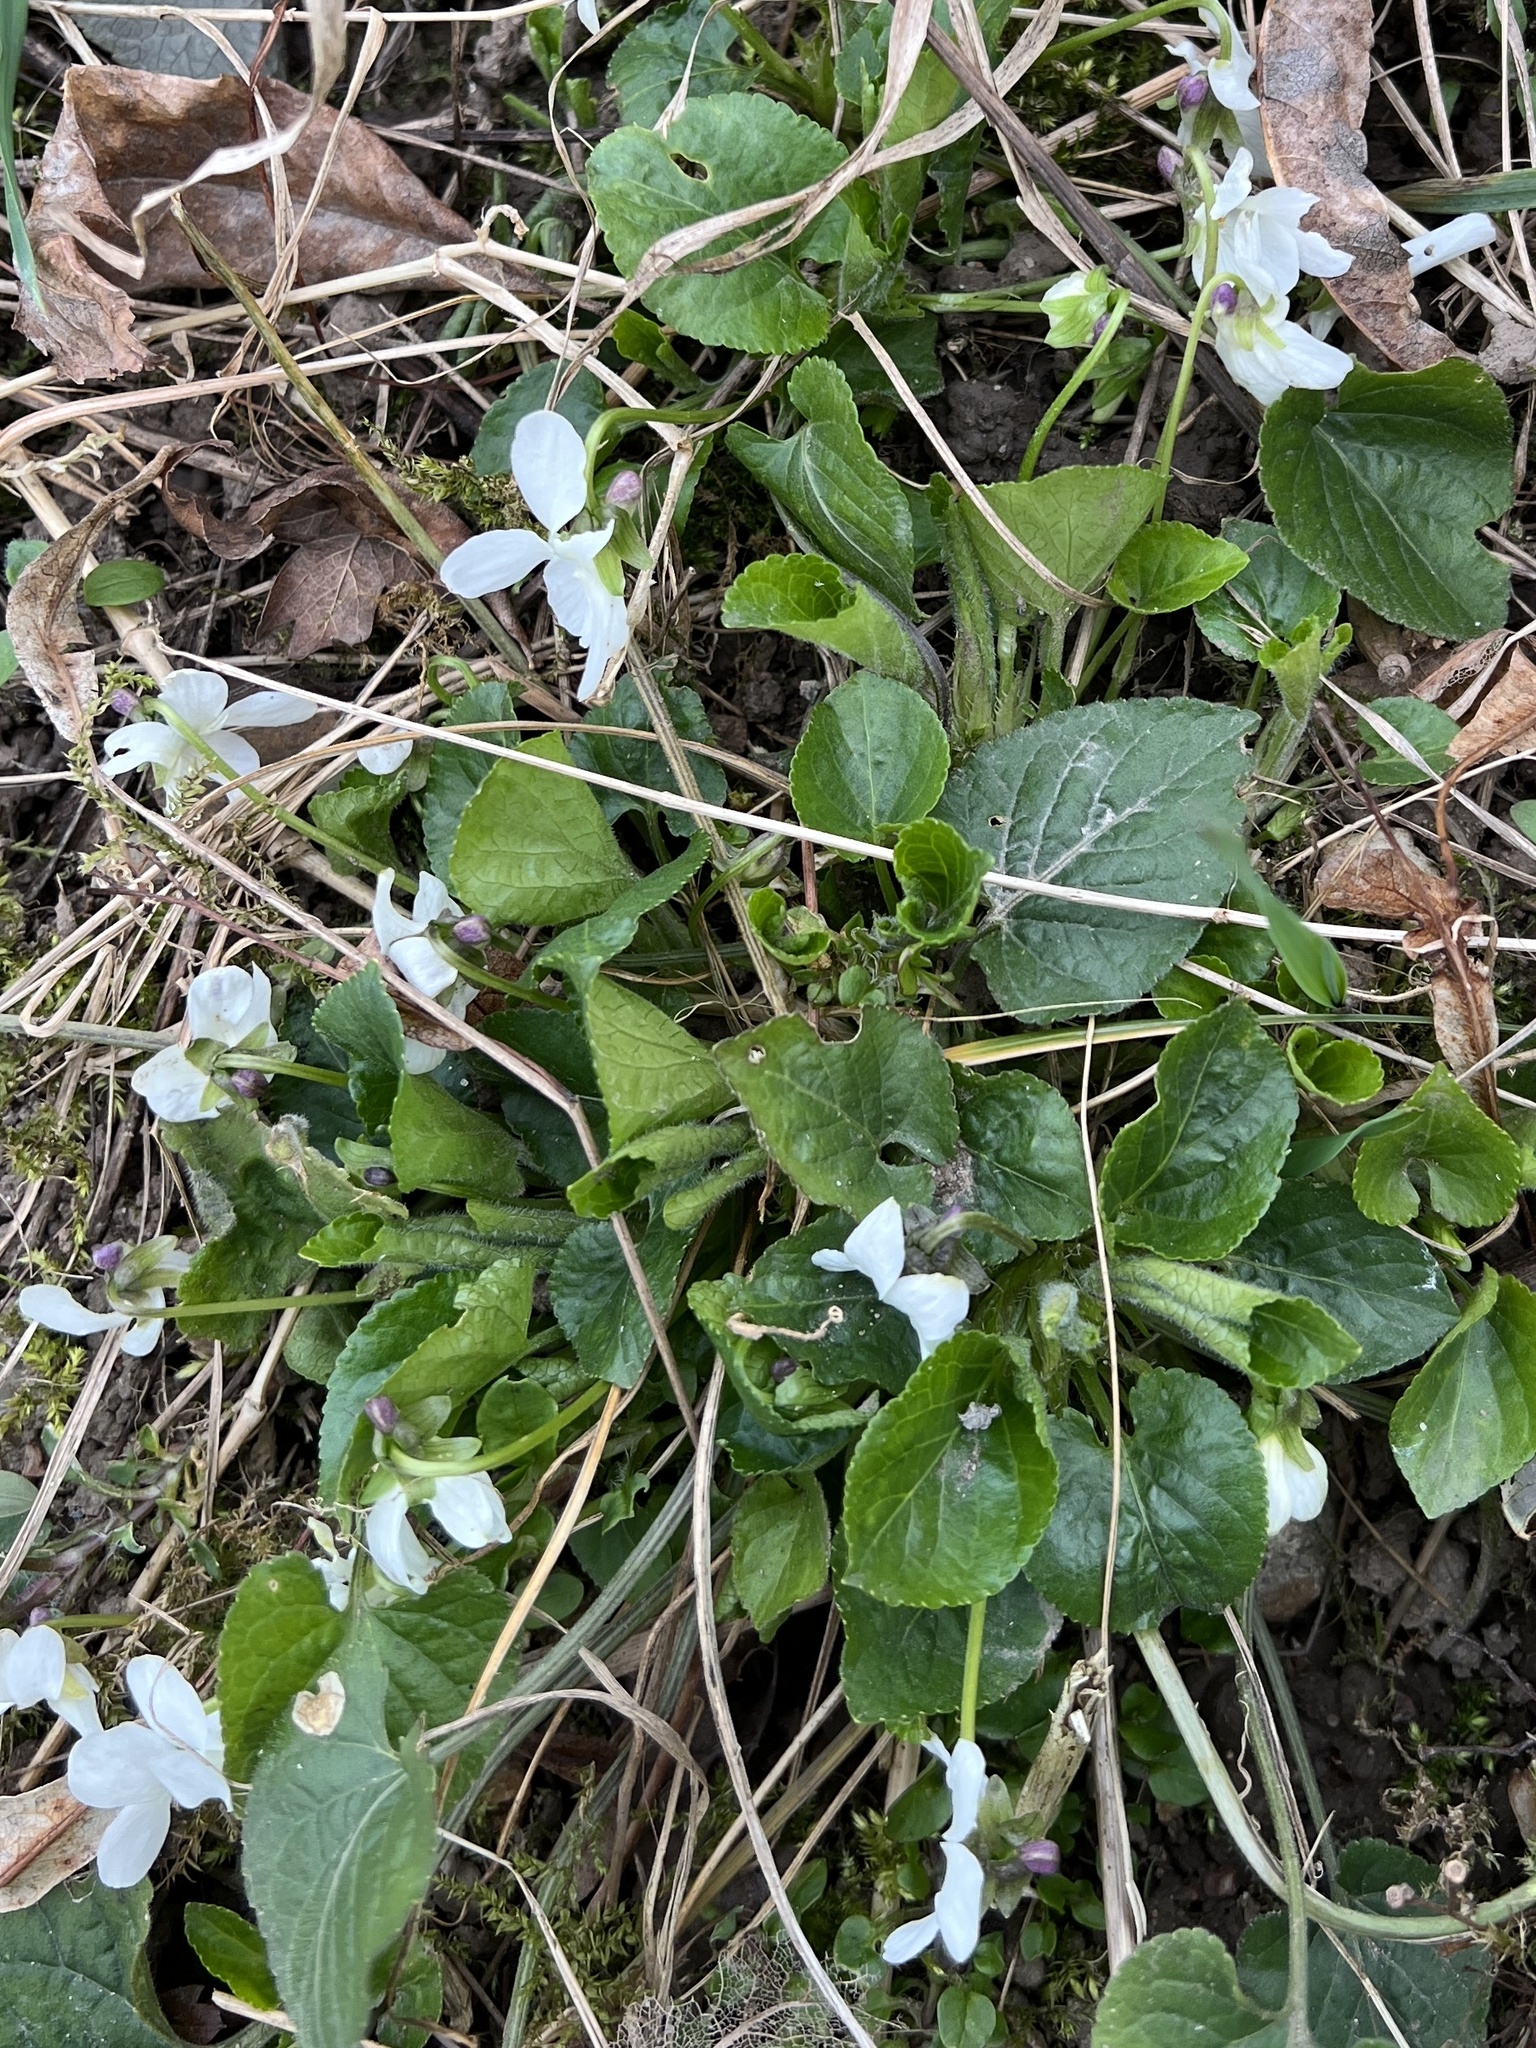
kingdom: Plantae
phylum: Tracheophyta
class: Magnoliopsida
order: Malpighiales
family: Violaceae
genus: Viola
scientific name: Viola suavis
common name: Russian violet
